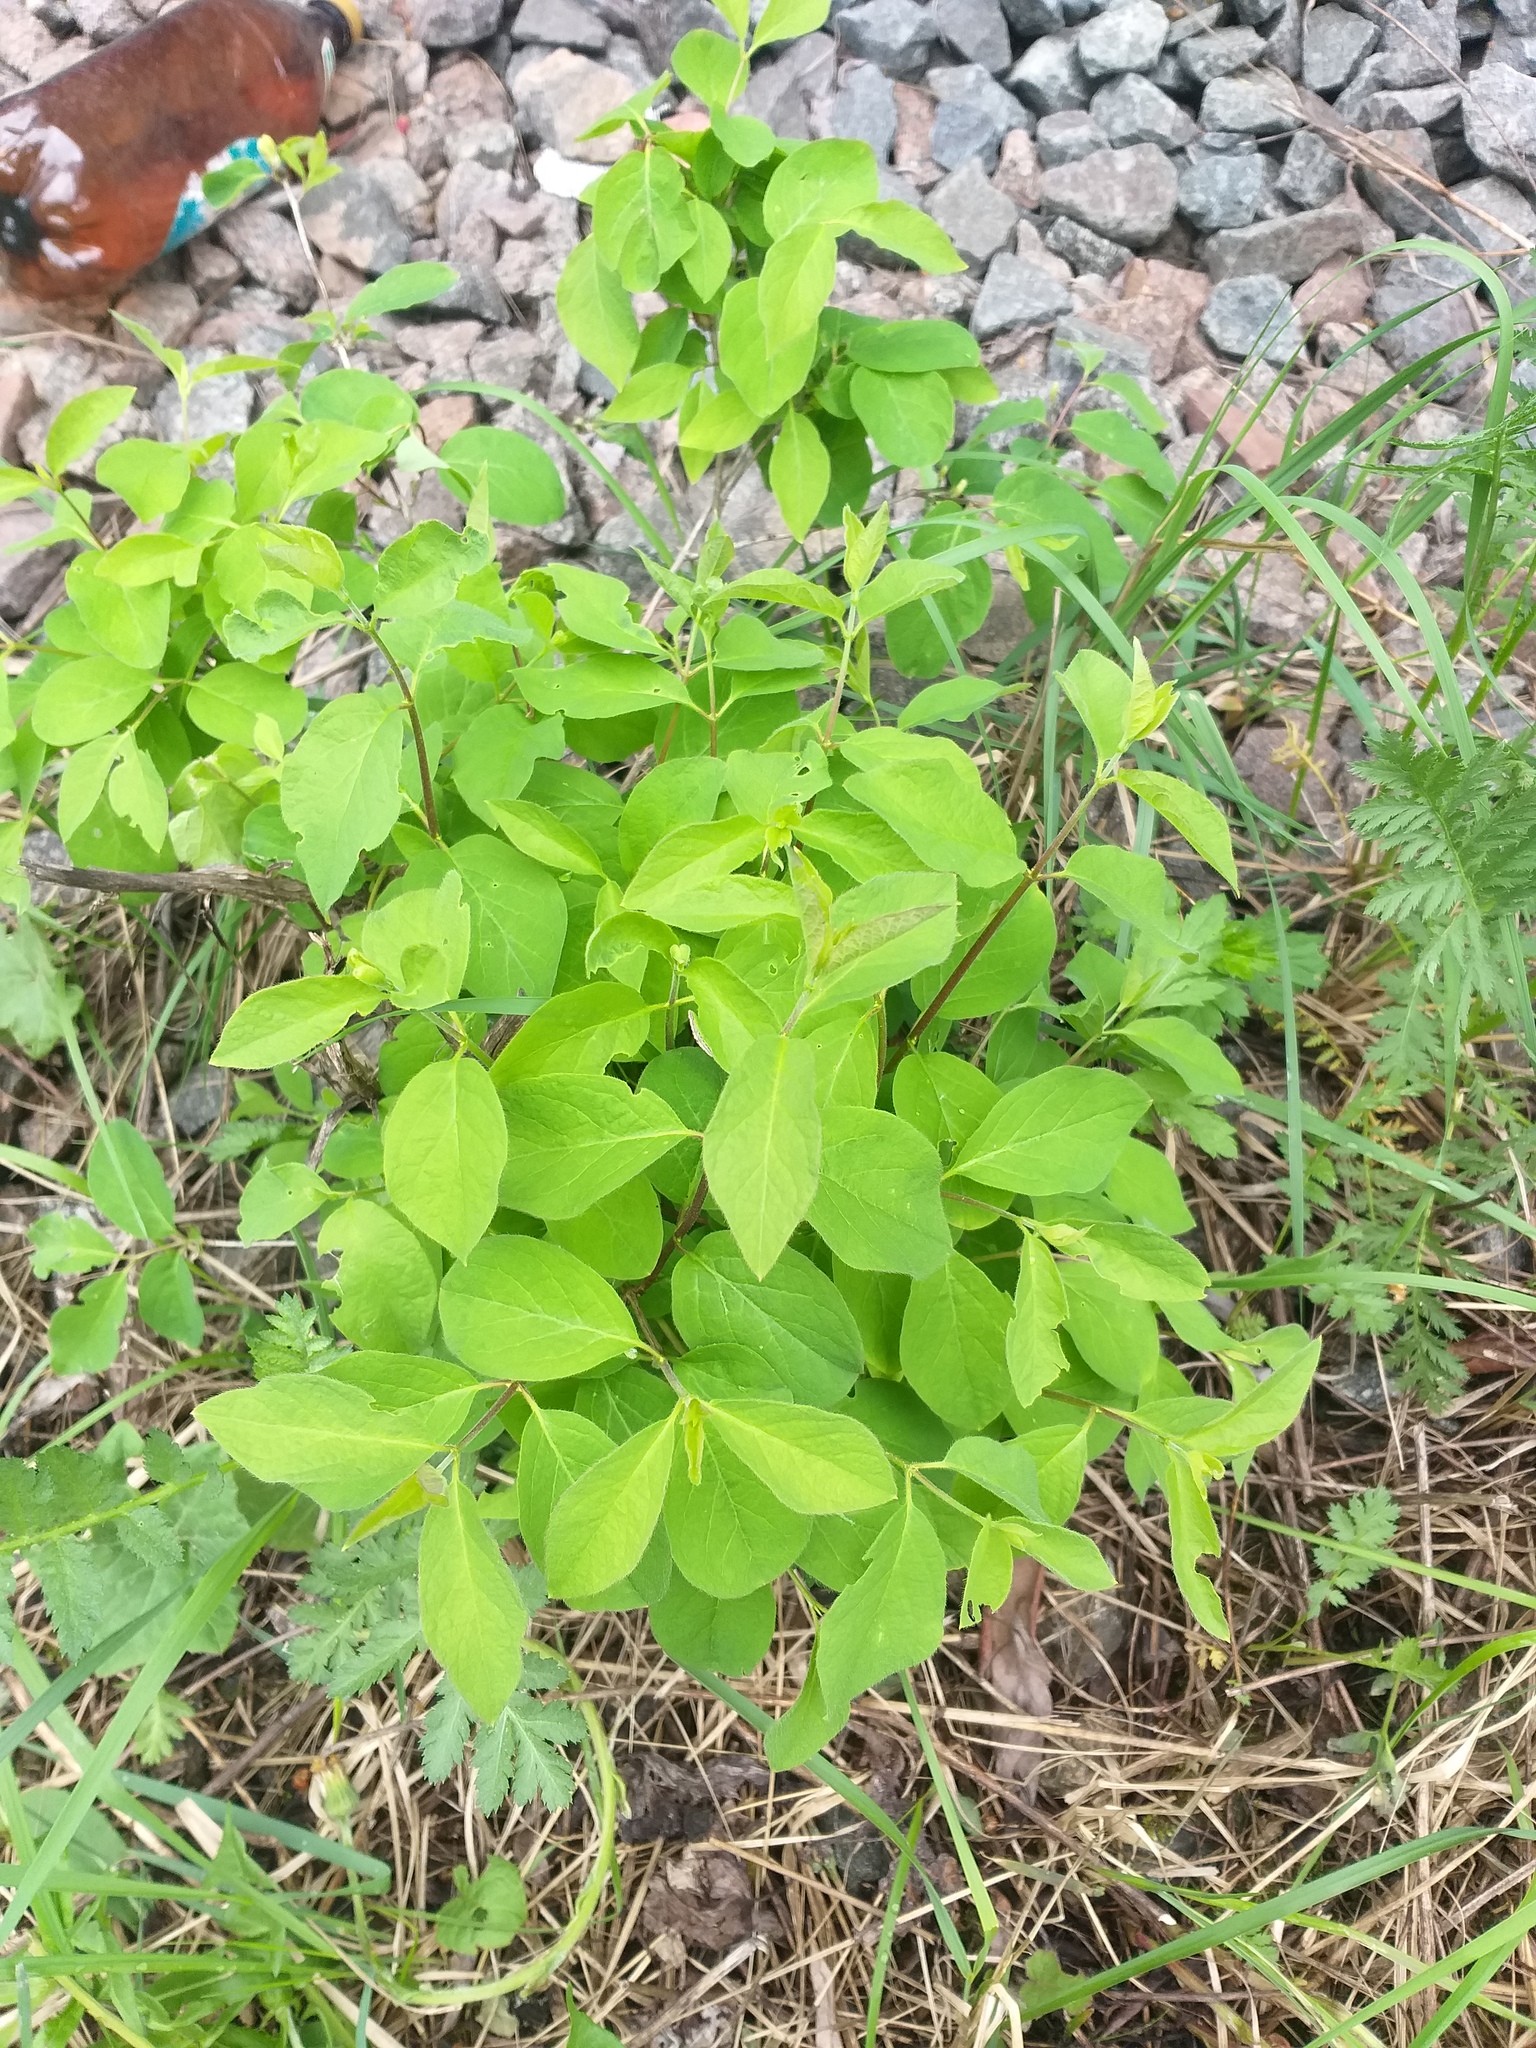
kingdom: Plantae
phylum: Tracheophyta
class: Magnoliopsida
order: Dipsacales
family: Caprifoliaceae
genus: Lonicera
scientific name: Lonicera xylosteum
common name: Fly honeysuckle
